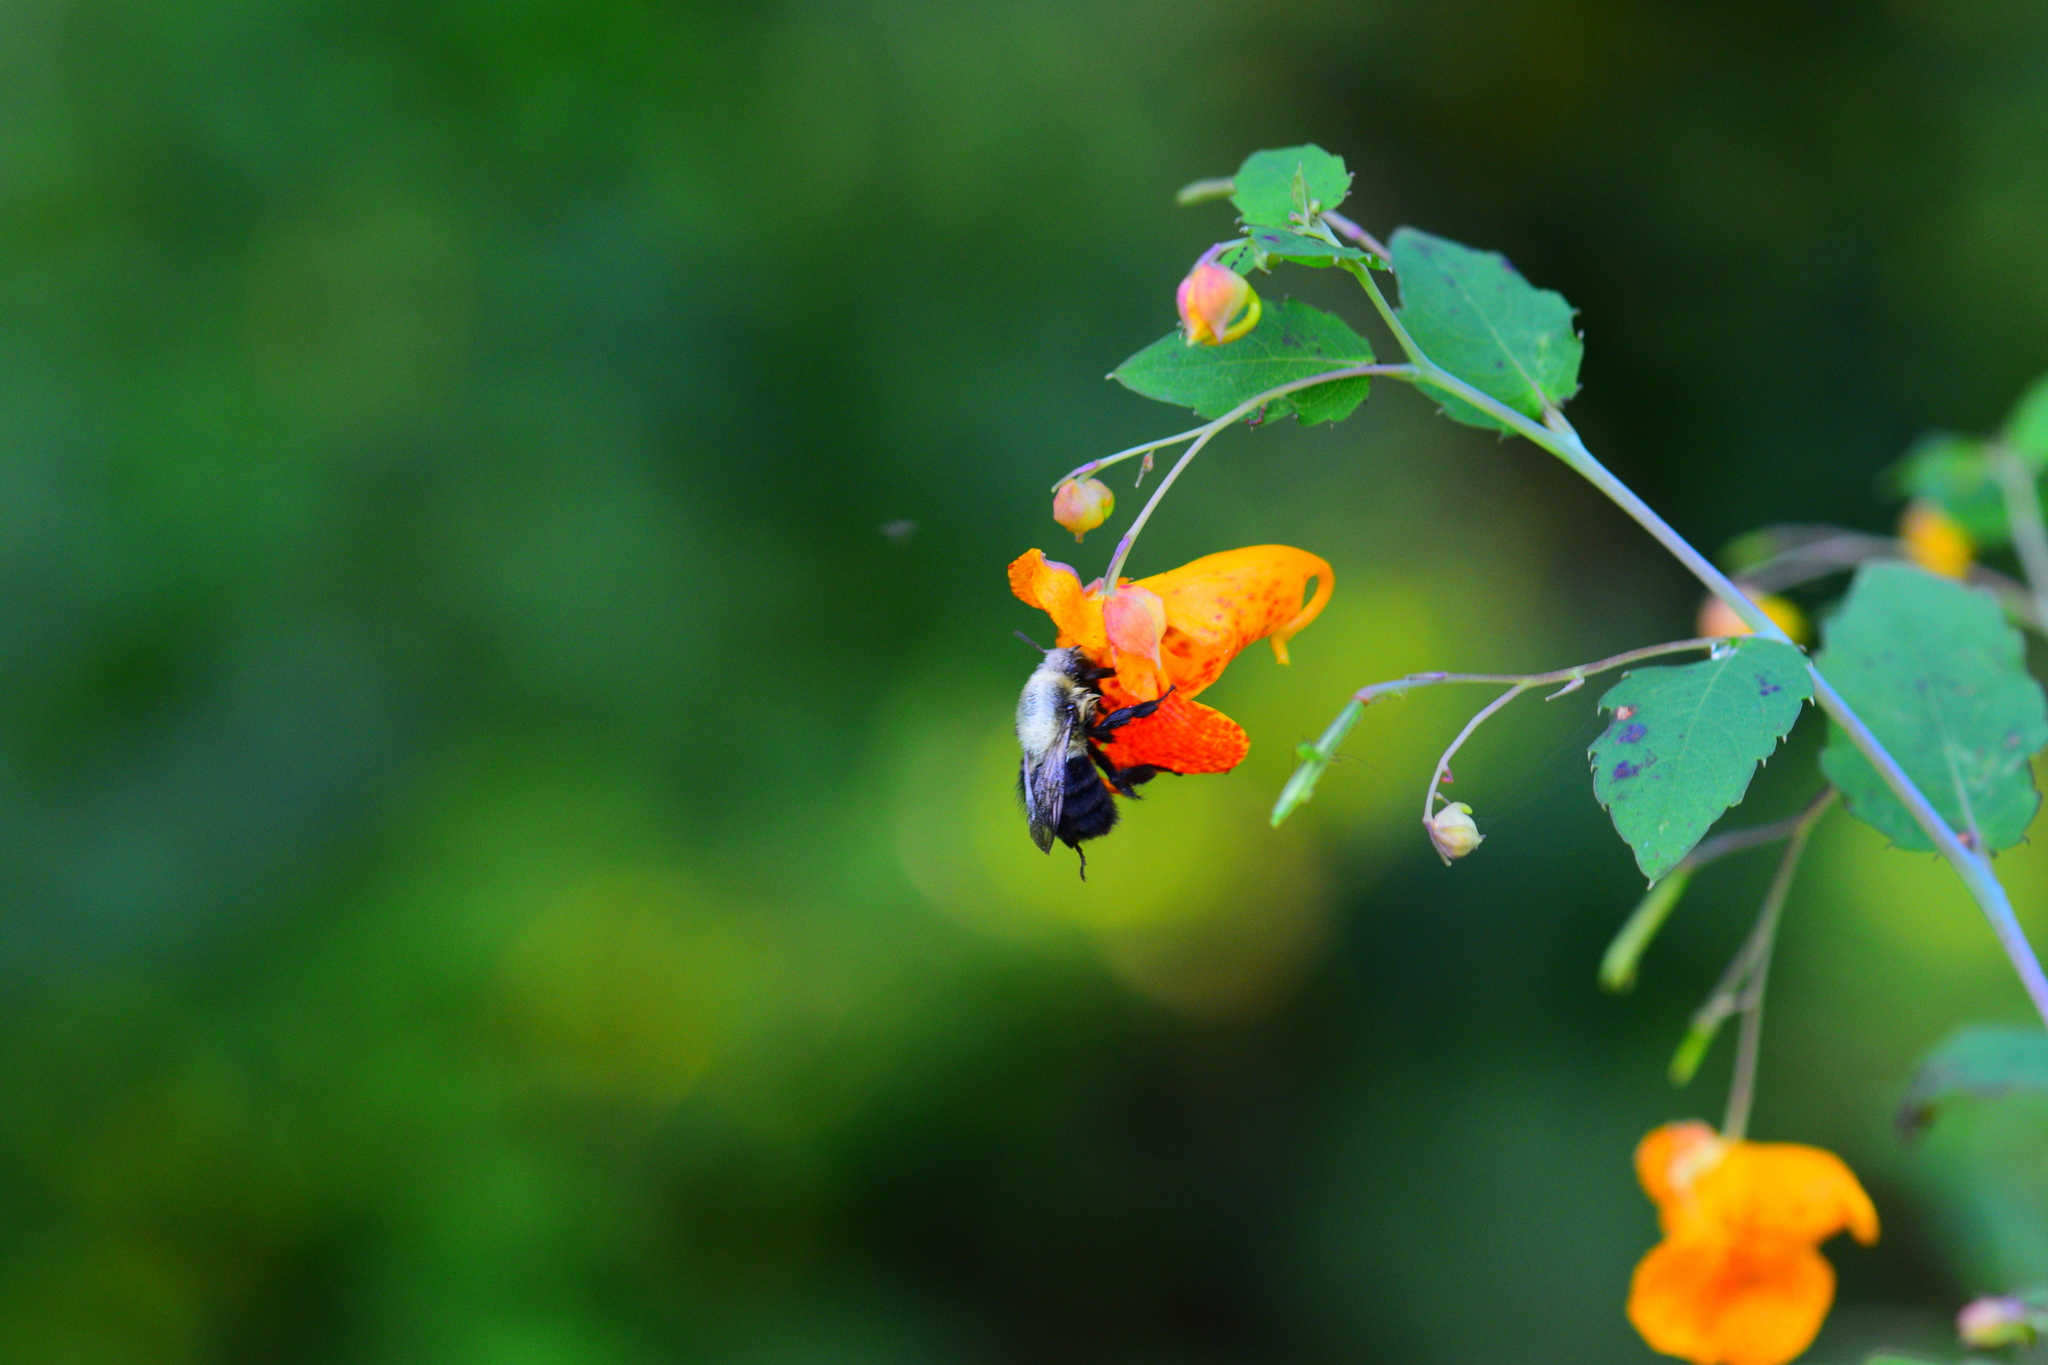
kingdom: Animalia
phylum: Arthropoda
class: Insecta
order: Hymenoptera
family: Apidae
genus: Bombus
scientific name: Bombus impatiens
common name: Common eastern bumble bee
